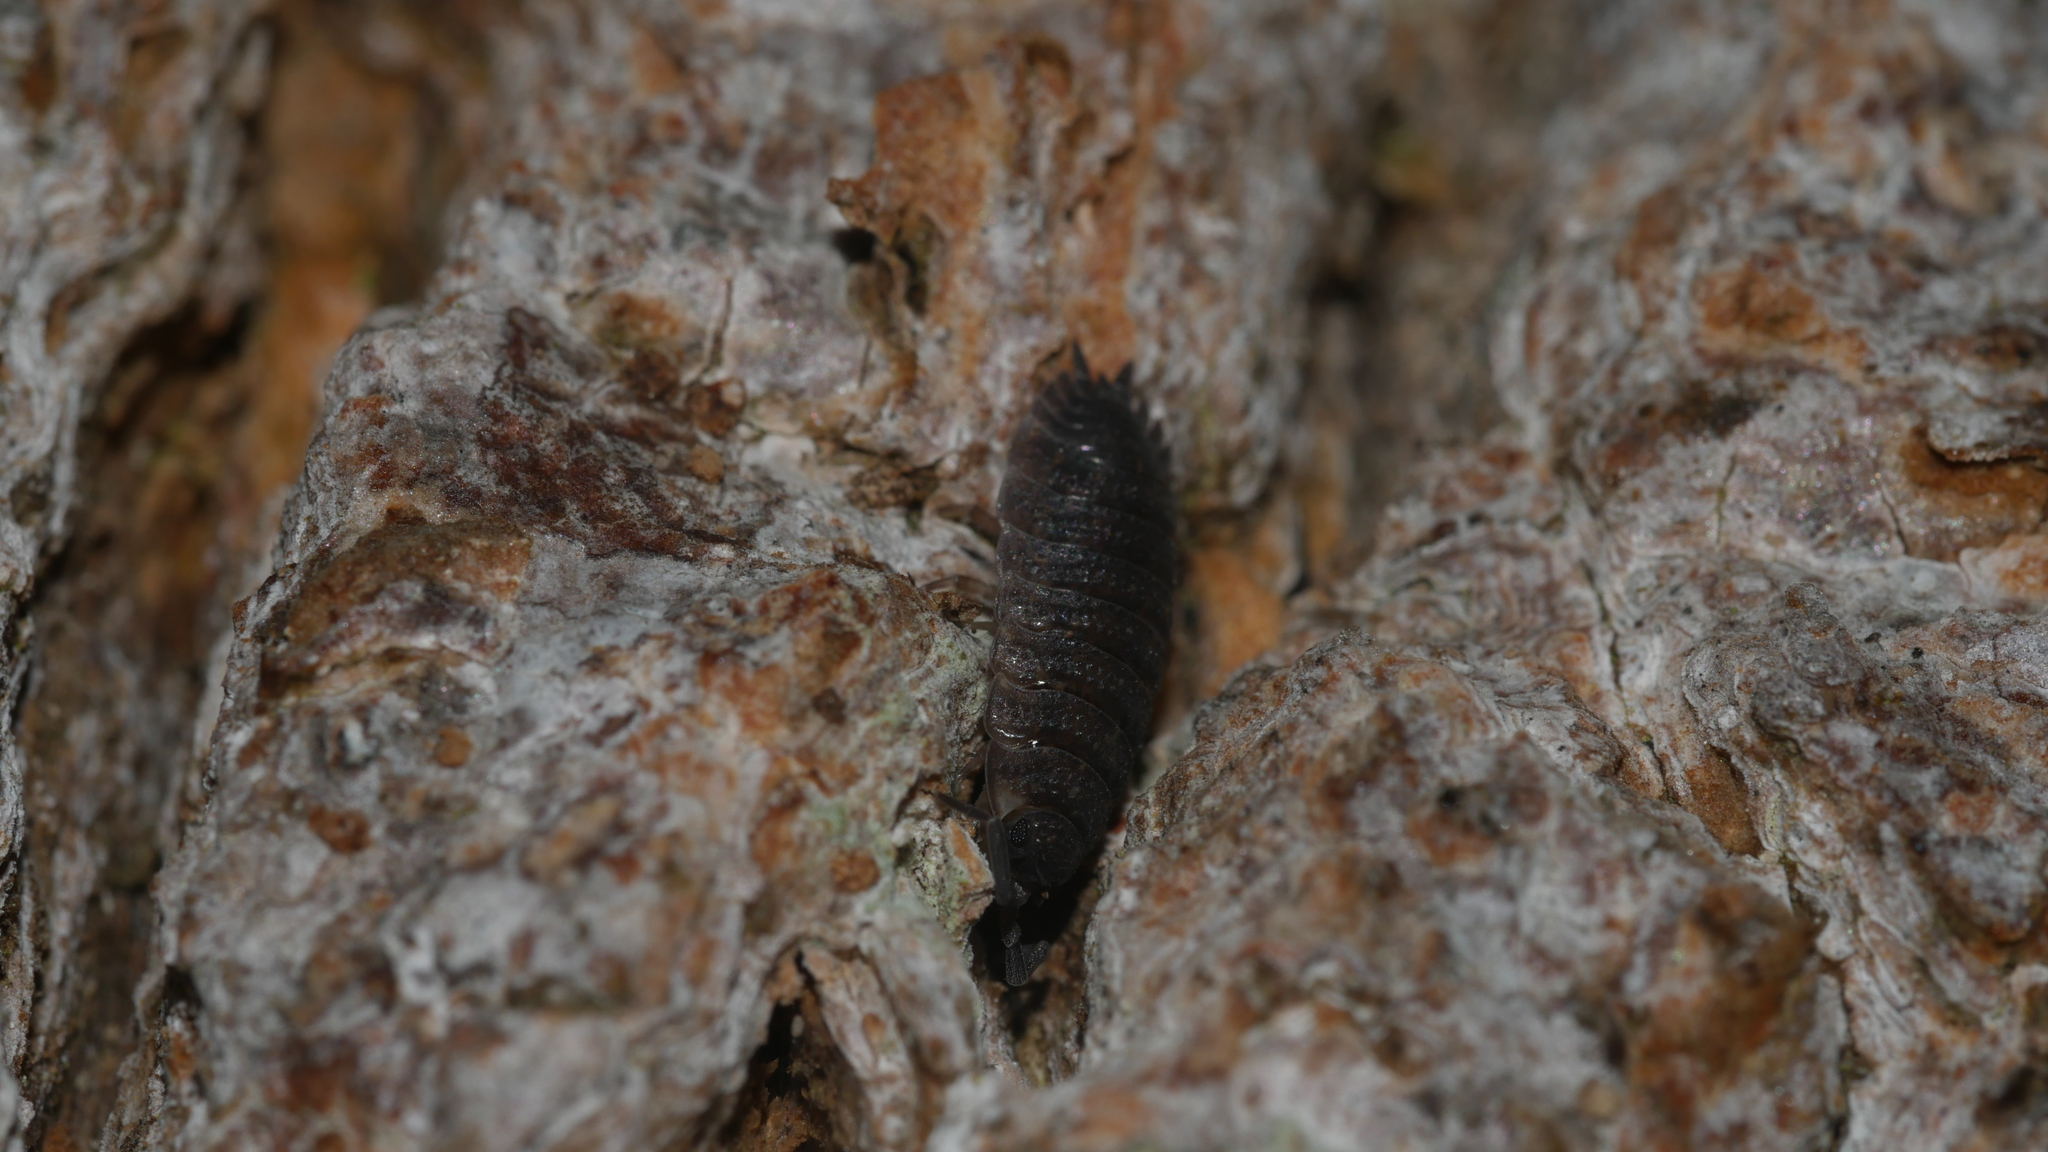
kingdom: Animalia
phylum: Arthropoda
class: Malacostraca
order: Isopoda
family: Porcellionidae
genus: Porcellio
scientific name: Porcellio scaber
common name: Common rough woodlouse
